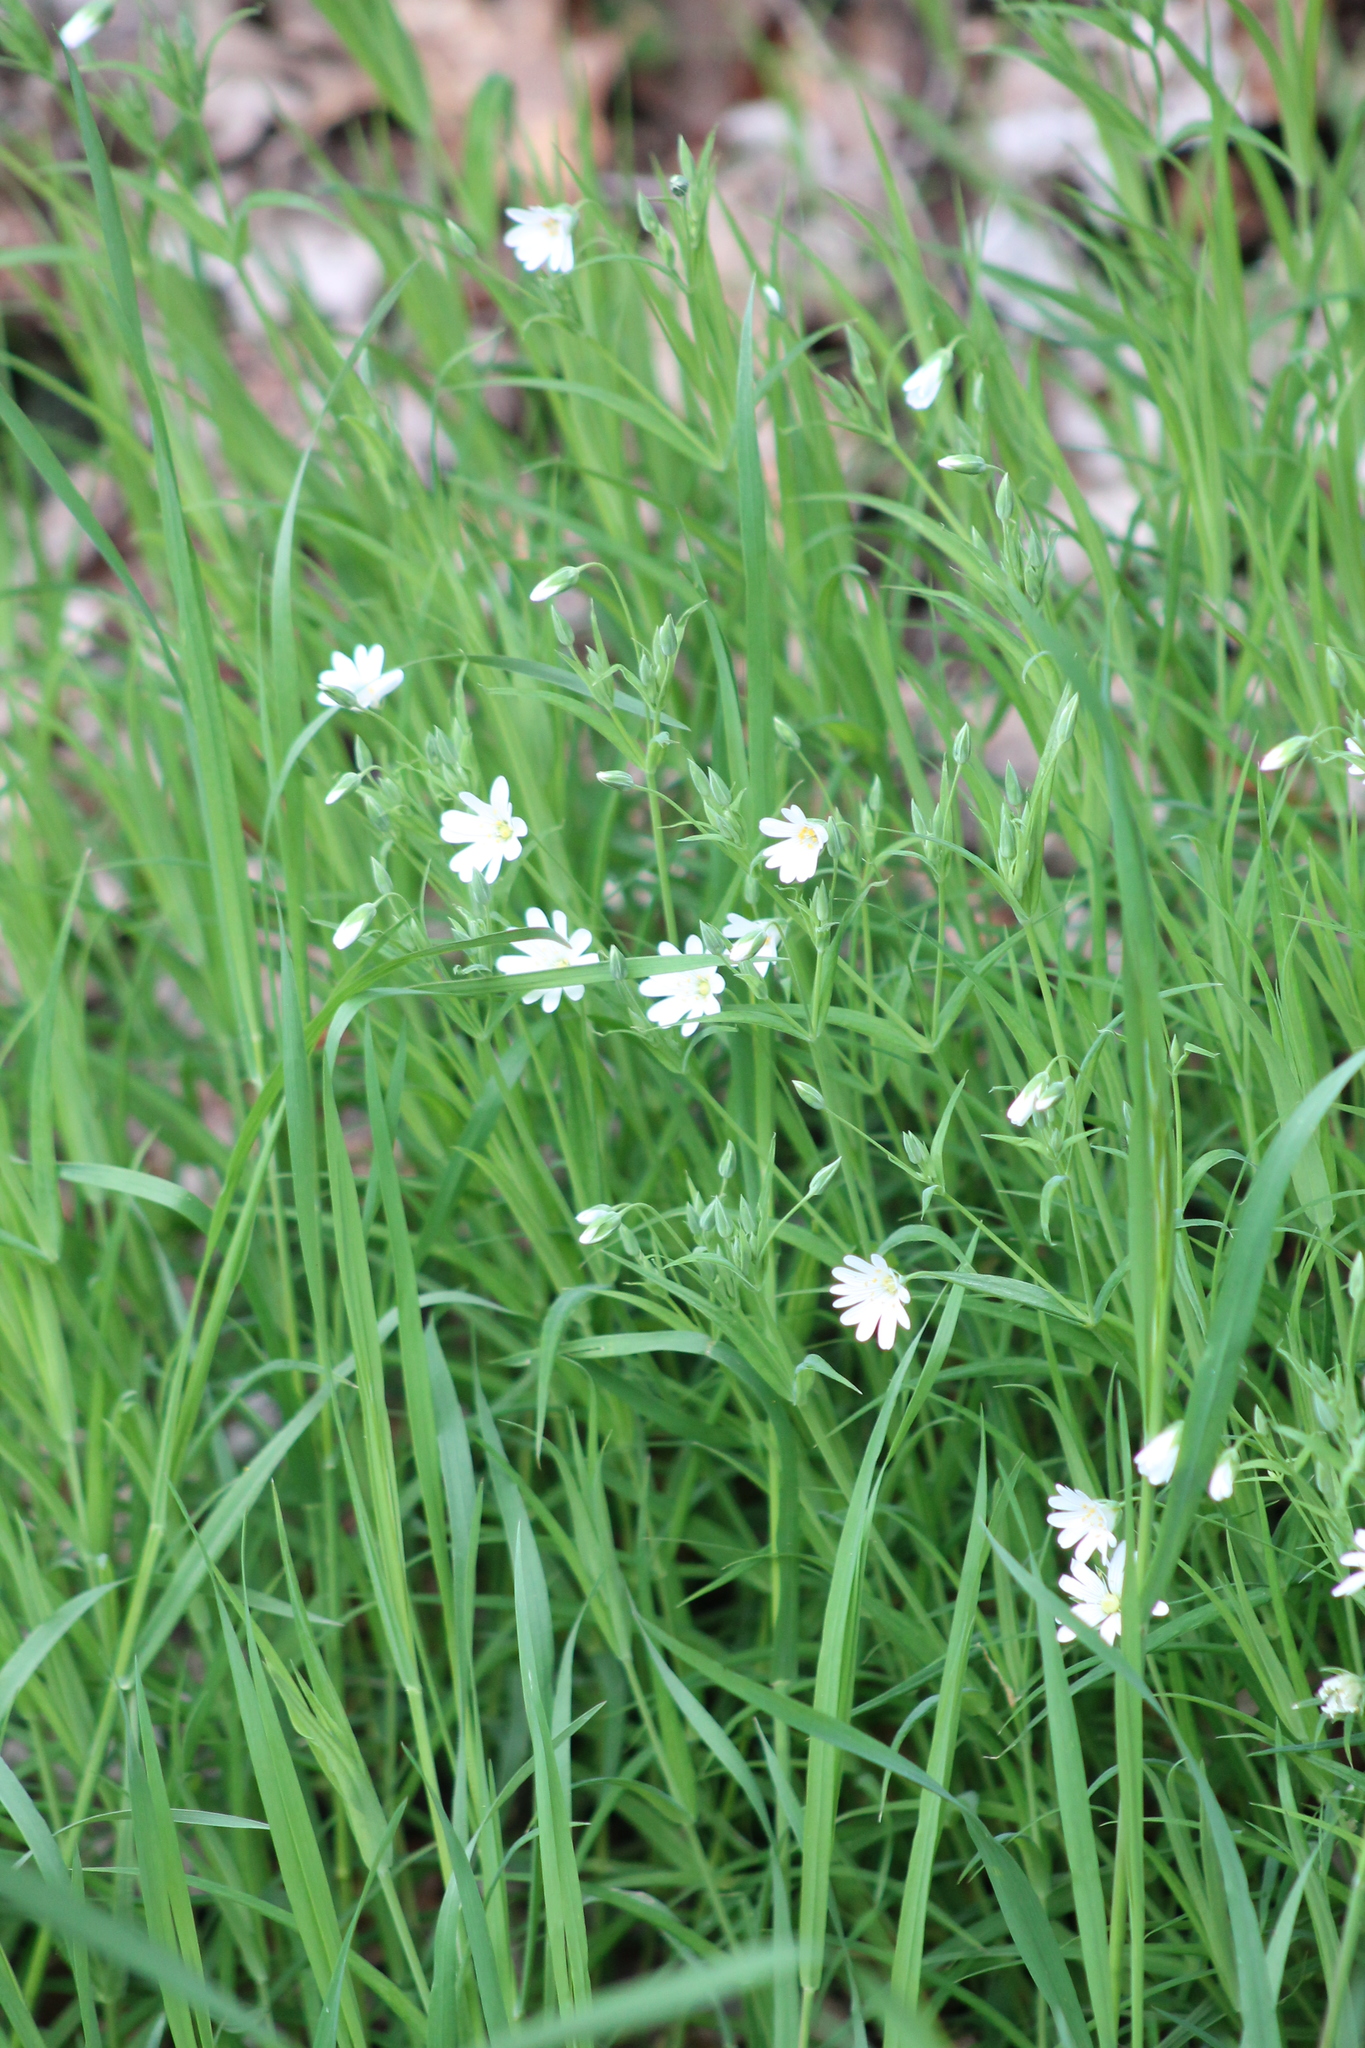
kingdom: Plantae
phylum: Tracheophyta
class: Magnoliopsida
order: Caryophyllales
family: Caryophyllaceae
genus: Rabelera
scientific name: Rabelera holostea
